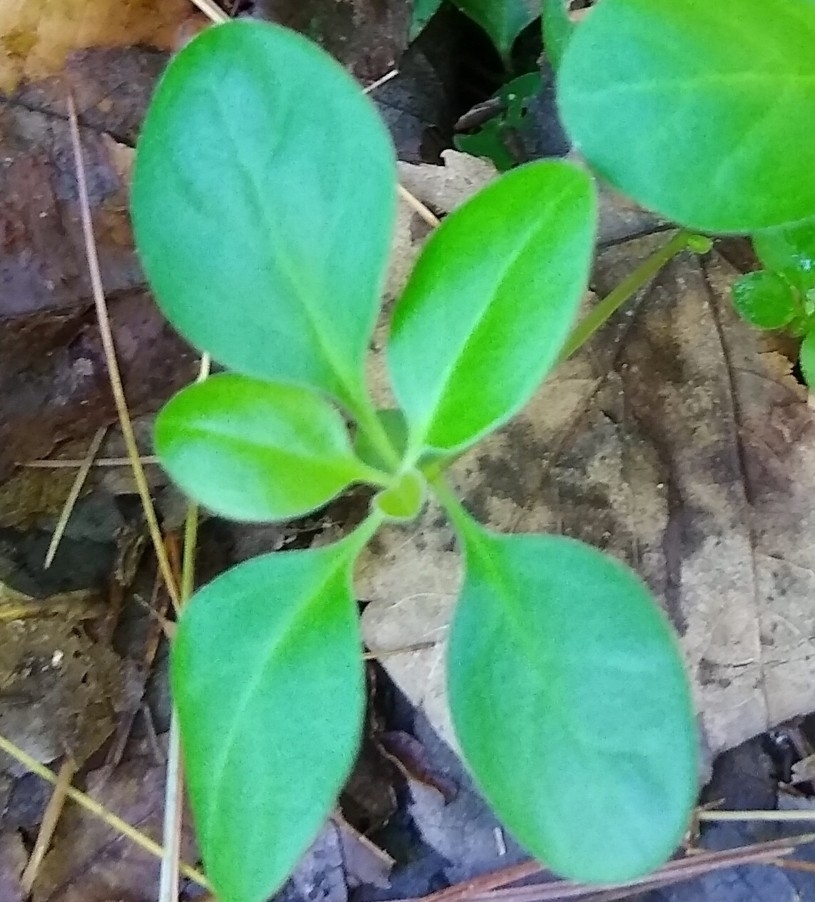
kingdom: Plantae
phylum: Tracheophyta
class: Magnoliopsida
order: Ericales
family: Ericaceae
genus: Gaultheria
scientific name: Gaultheria procumbens
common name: Checkerberry
